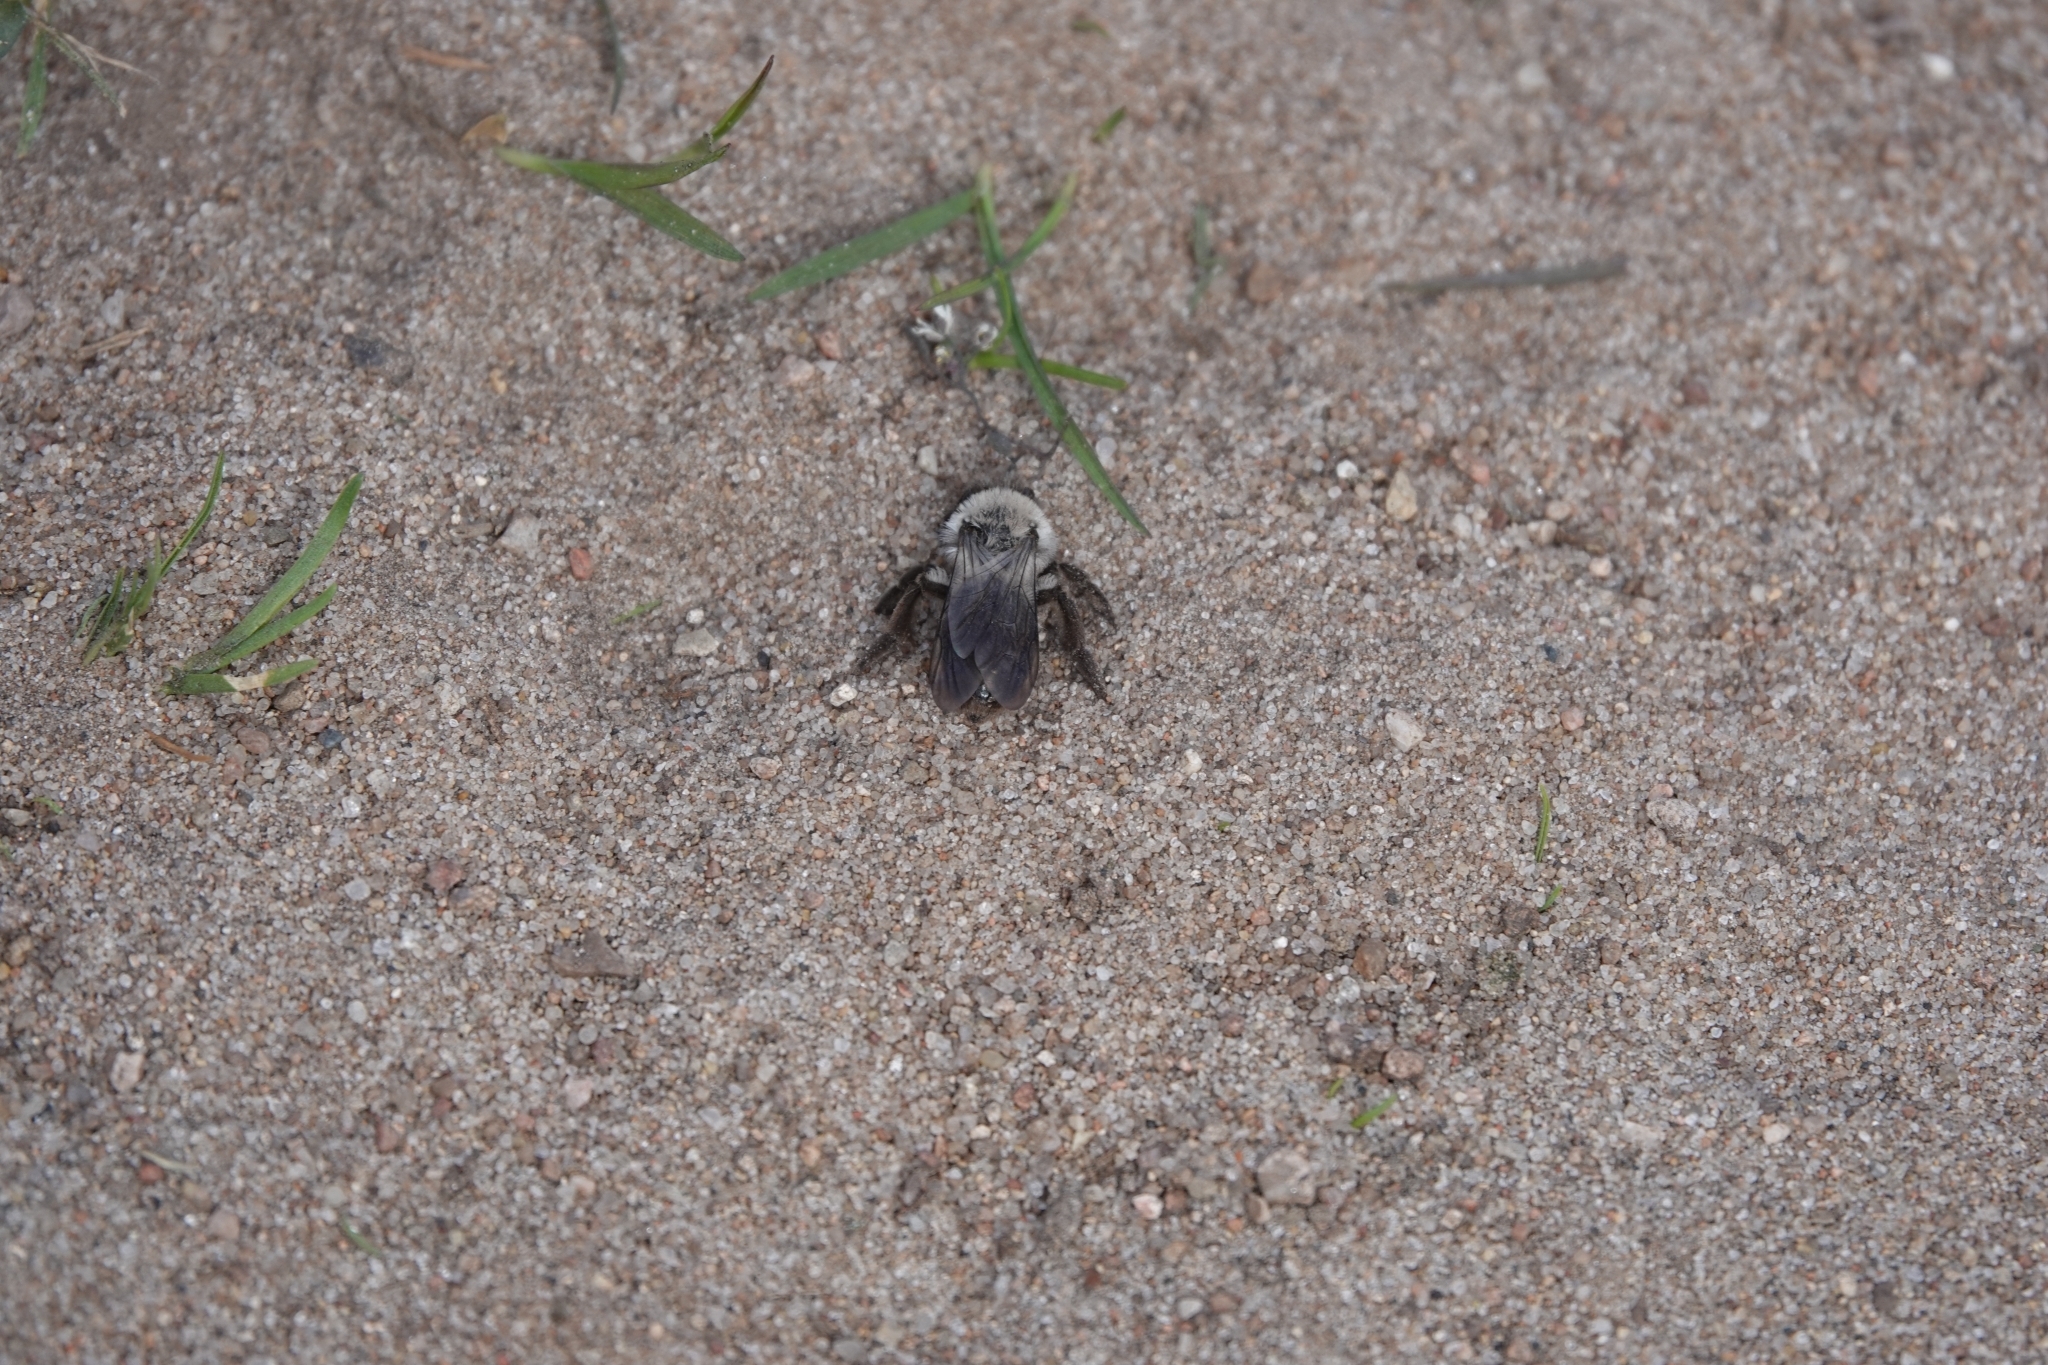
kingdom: Animalia
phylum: Arthropoda
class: Insecta
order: Hymenoptera
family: Andrenidae
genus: Andrena
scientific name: Andrena vaga
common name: Grey-backed mining bee
